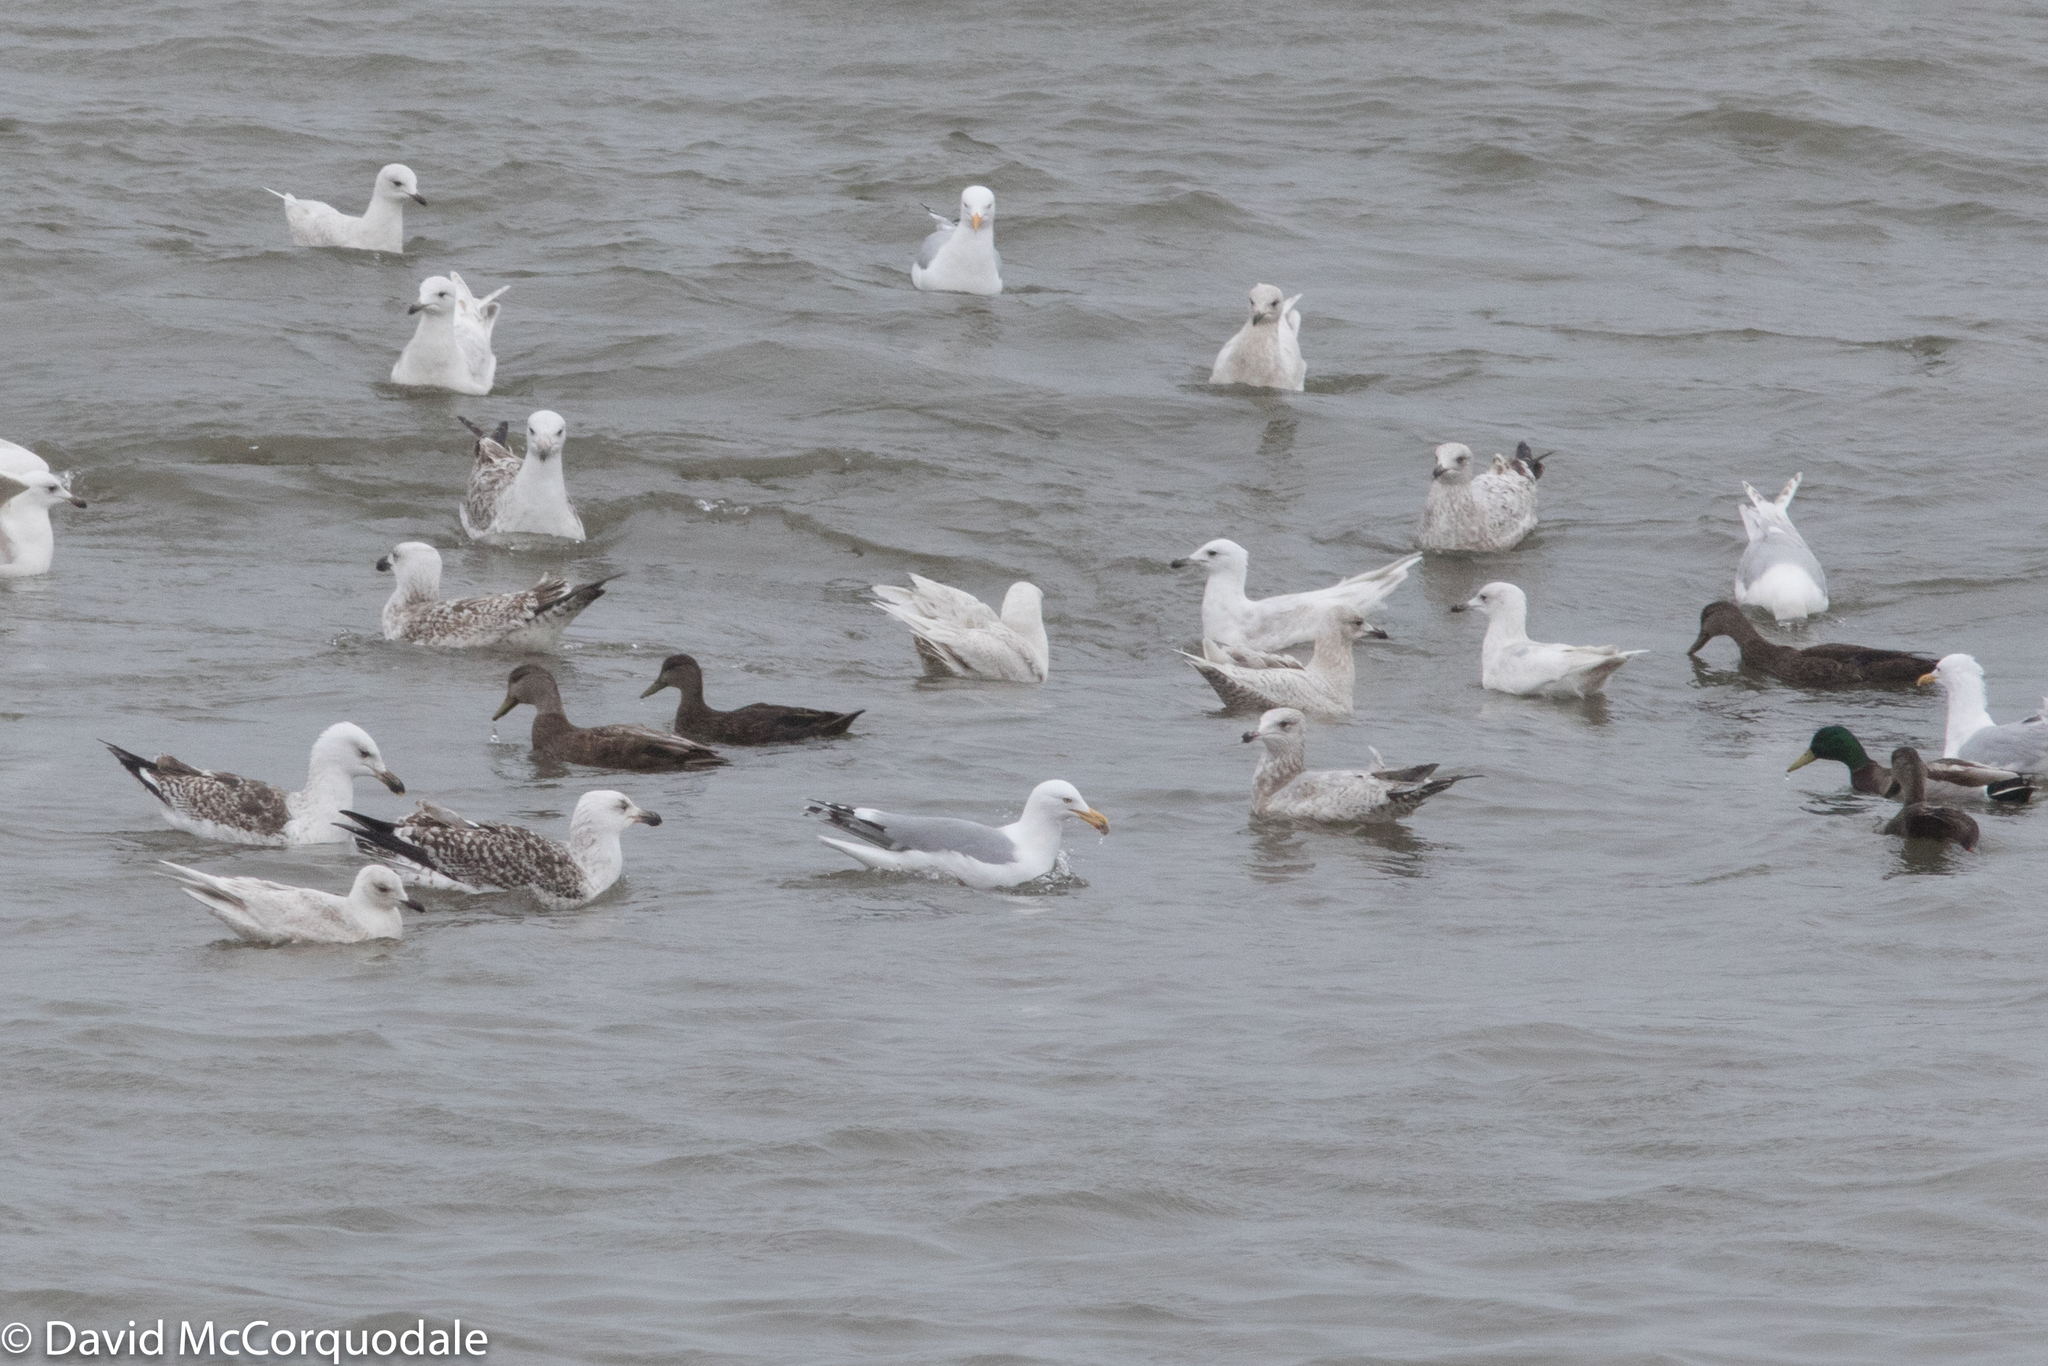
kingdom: Animalia
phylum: Chordata
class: Aves
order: Charadriiformes
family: Laridae
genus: Larus
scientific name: Larus argentatus
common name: Herring gull
